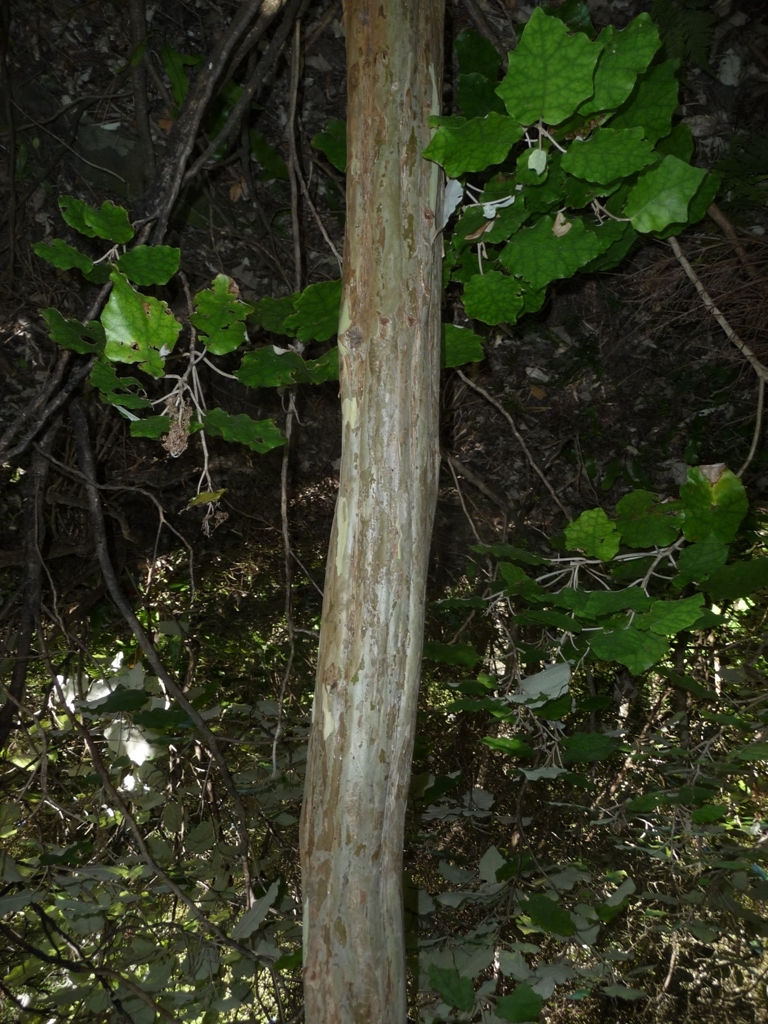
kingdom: Plantae
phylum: Tracheophyta
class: Magnoliopsida
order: Myrtales
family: Myrtaceae
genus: Lophomyrtus
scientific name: Lophomyrtus obcordata
